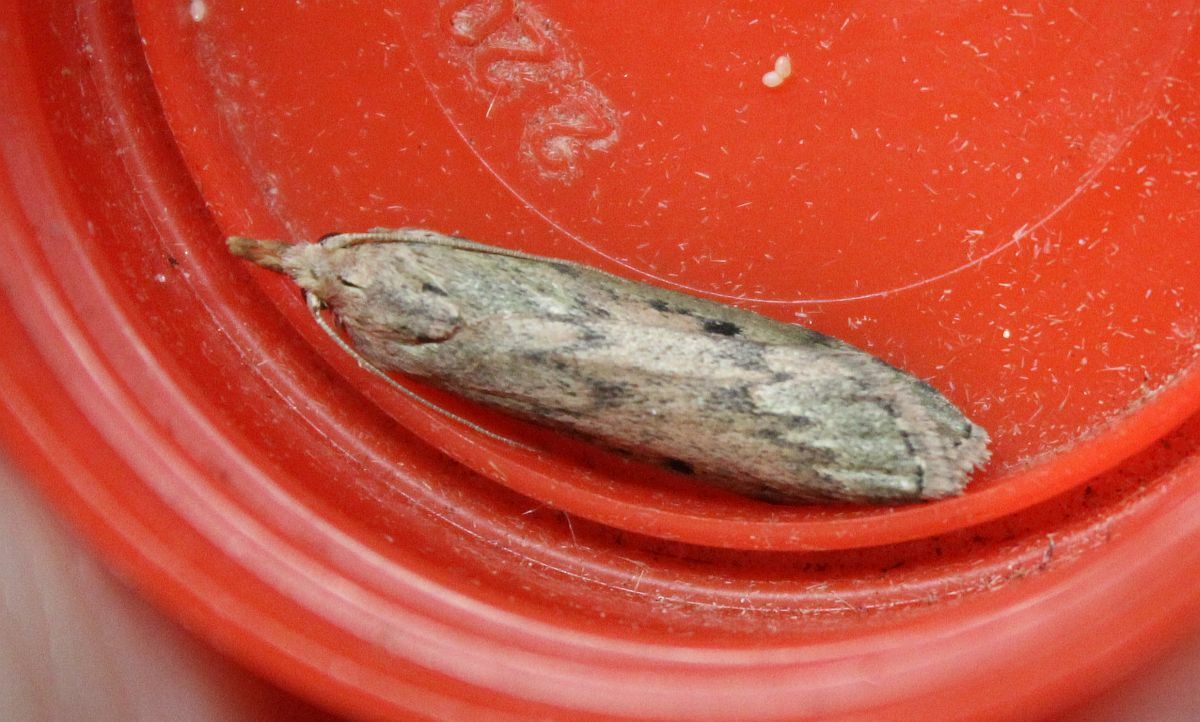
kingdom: Animalia
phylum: Arthropoda
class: Insecta
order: Lepidoptera
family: Pyralidae
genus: Aphomia
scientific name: Aphomia sociella
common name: Bee moth
